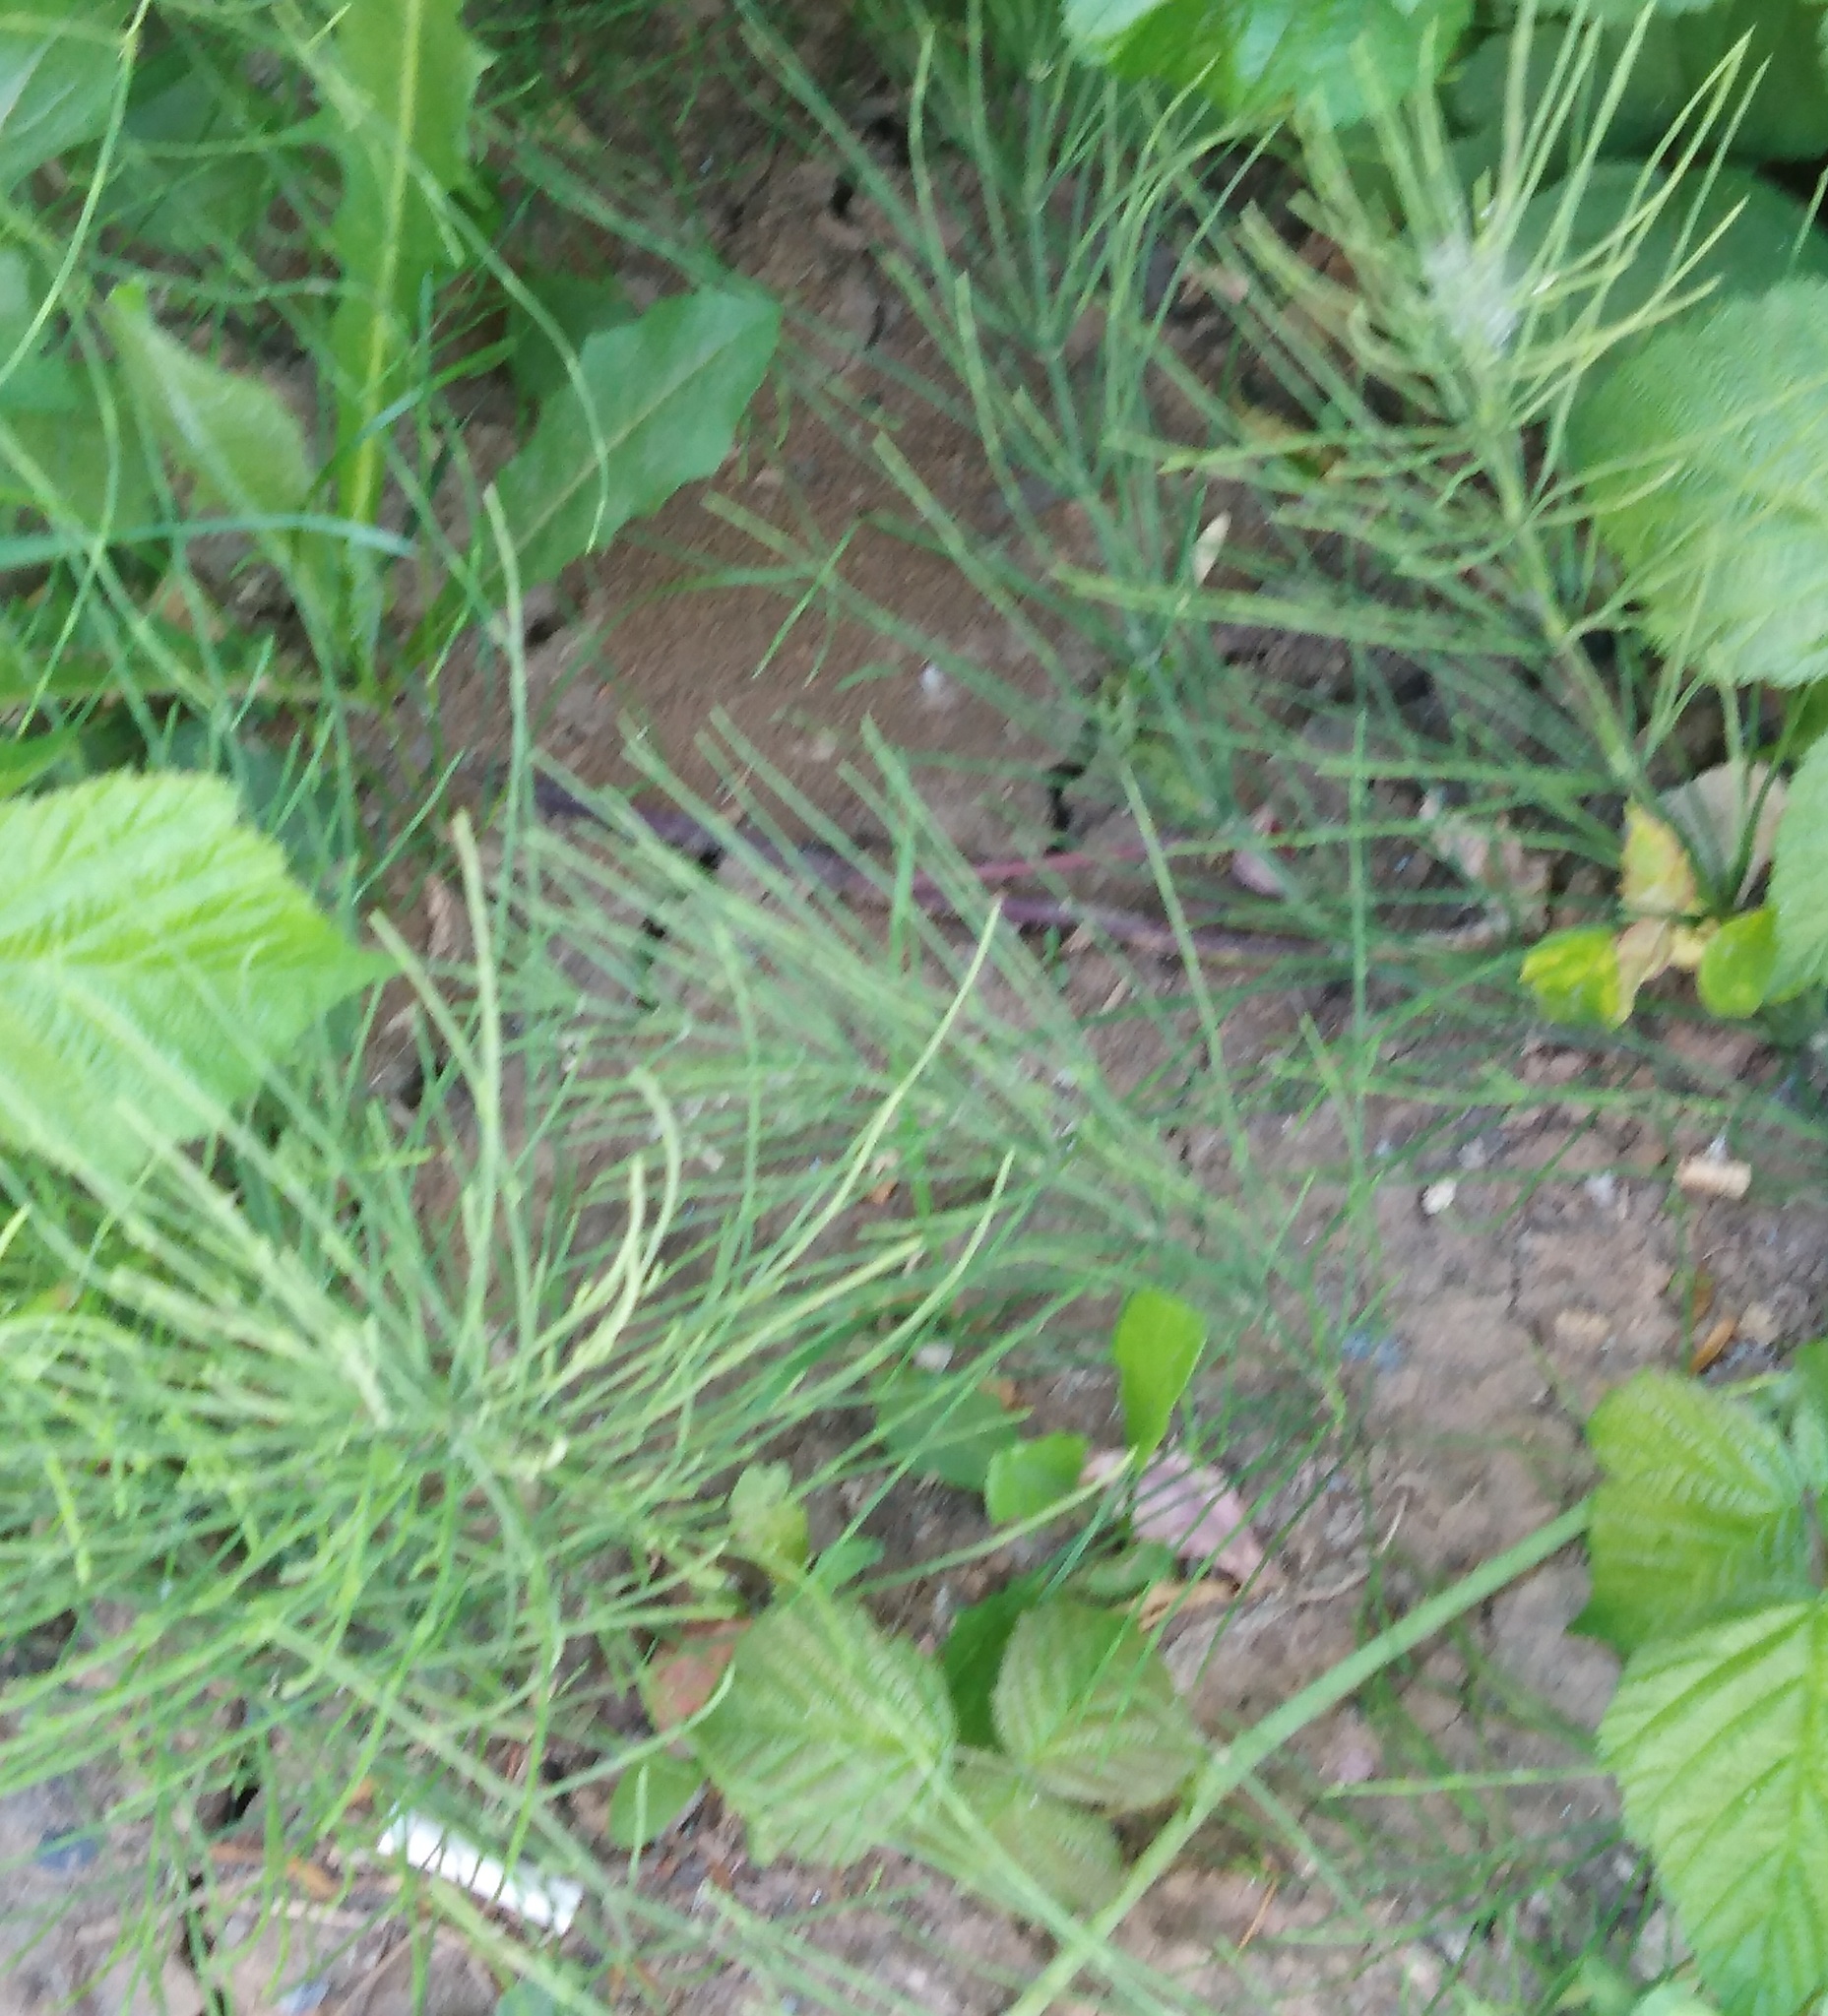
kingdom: Plantae
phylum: Tracheophyta
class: Polypodiopsida
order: Equisetales
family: Equisetaceae
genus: Equisetum
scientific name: Equisetum arvense
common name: Field horsetail
